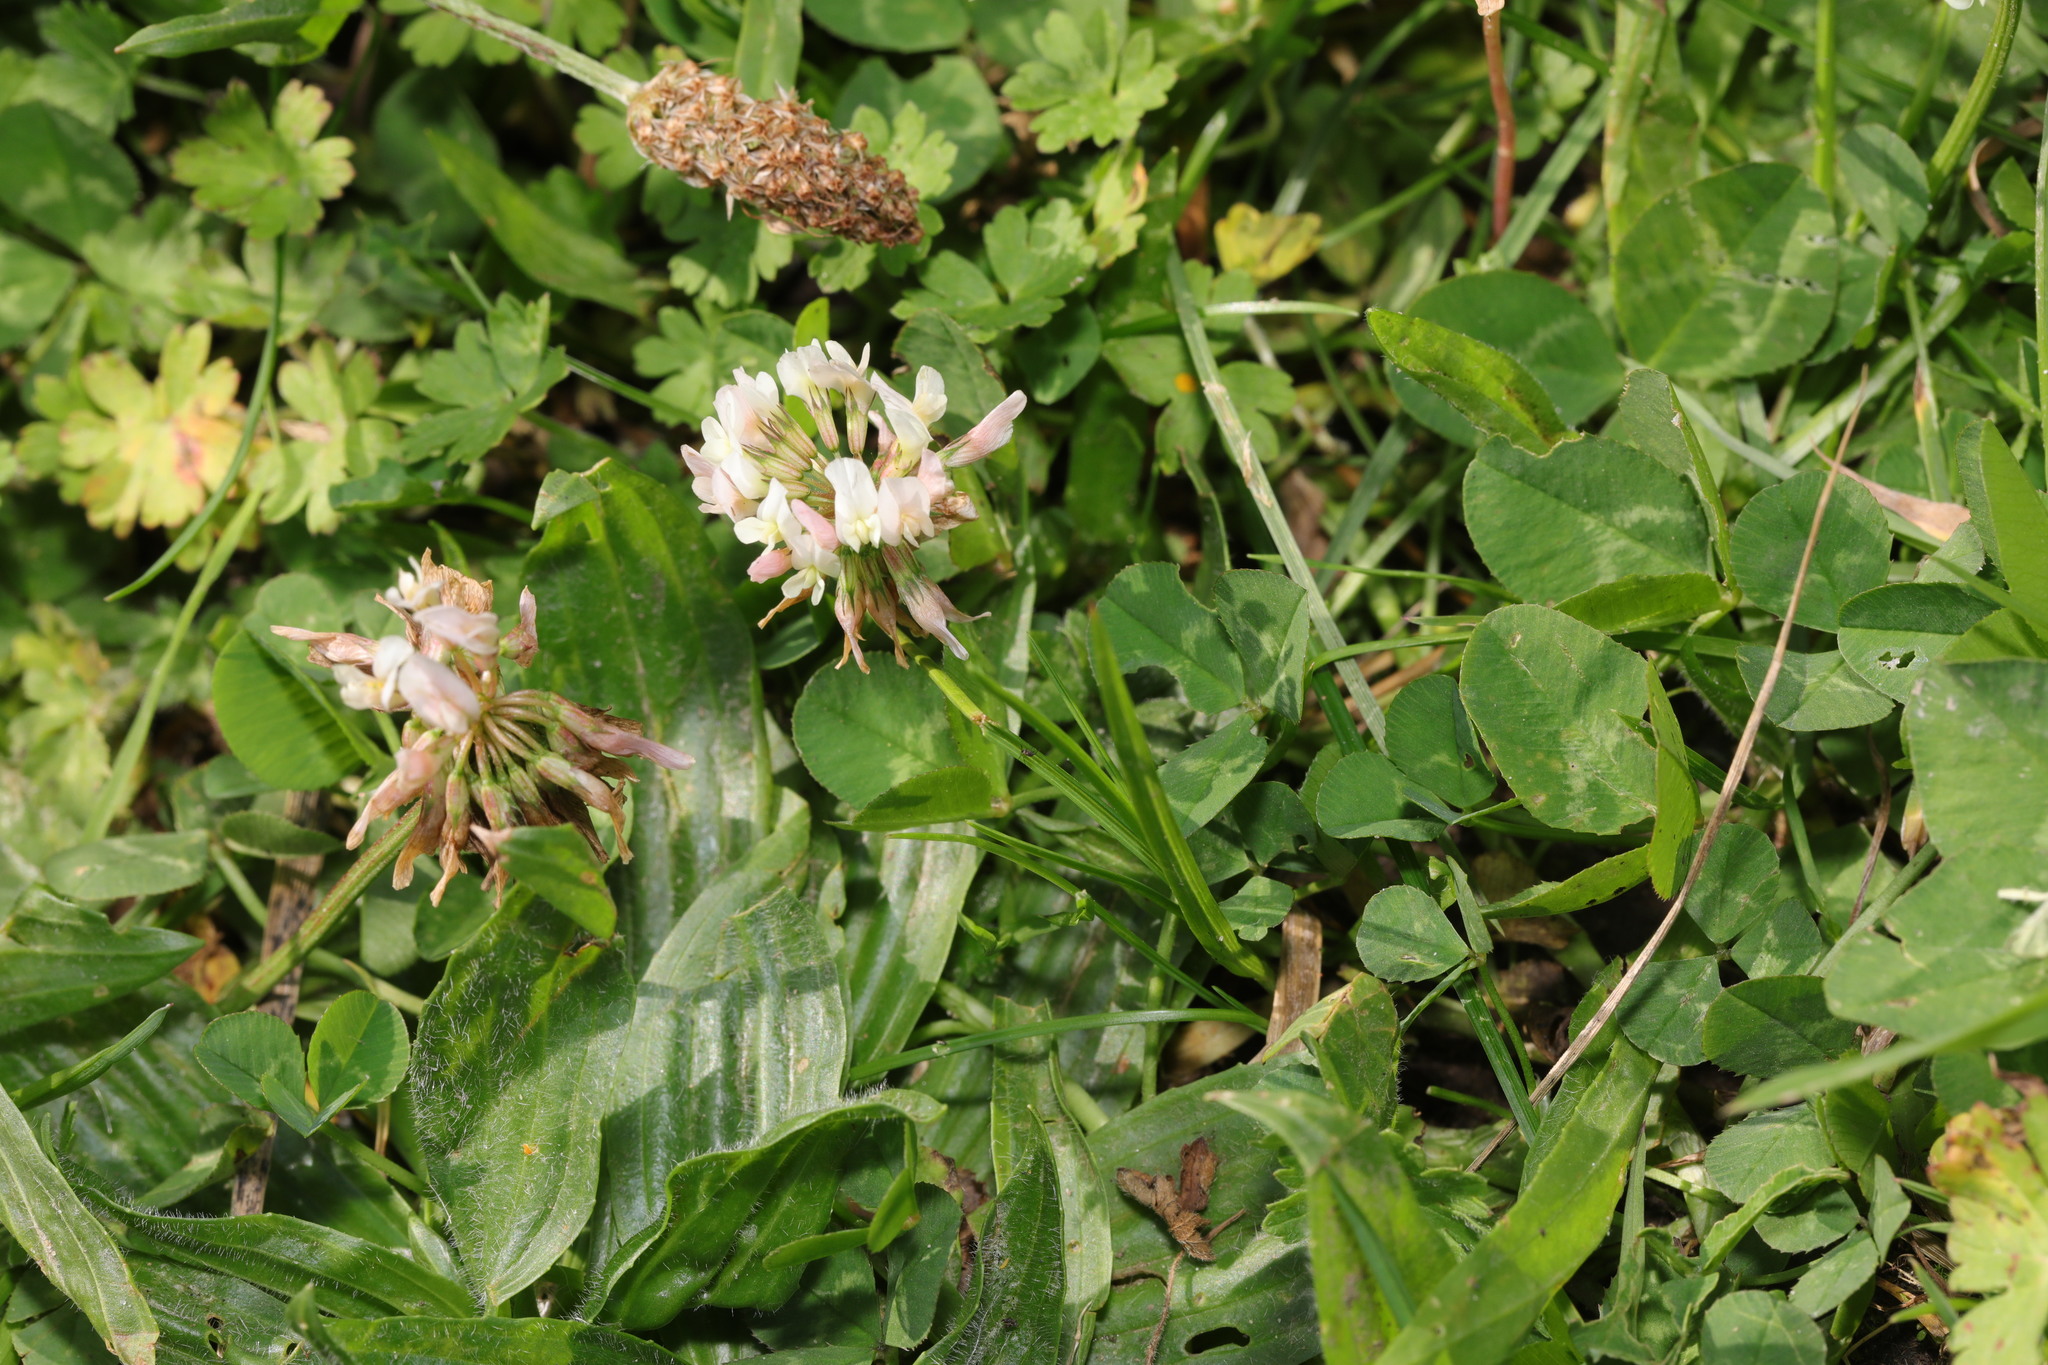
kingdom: Plantae
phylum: Tracheophyta
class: Magnoliopsida
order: Fabales
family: Fabaceae
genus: Trifolium
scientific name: Trifolium repens
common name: White clover
